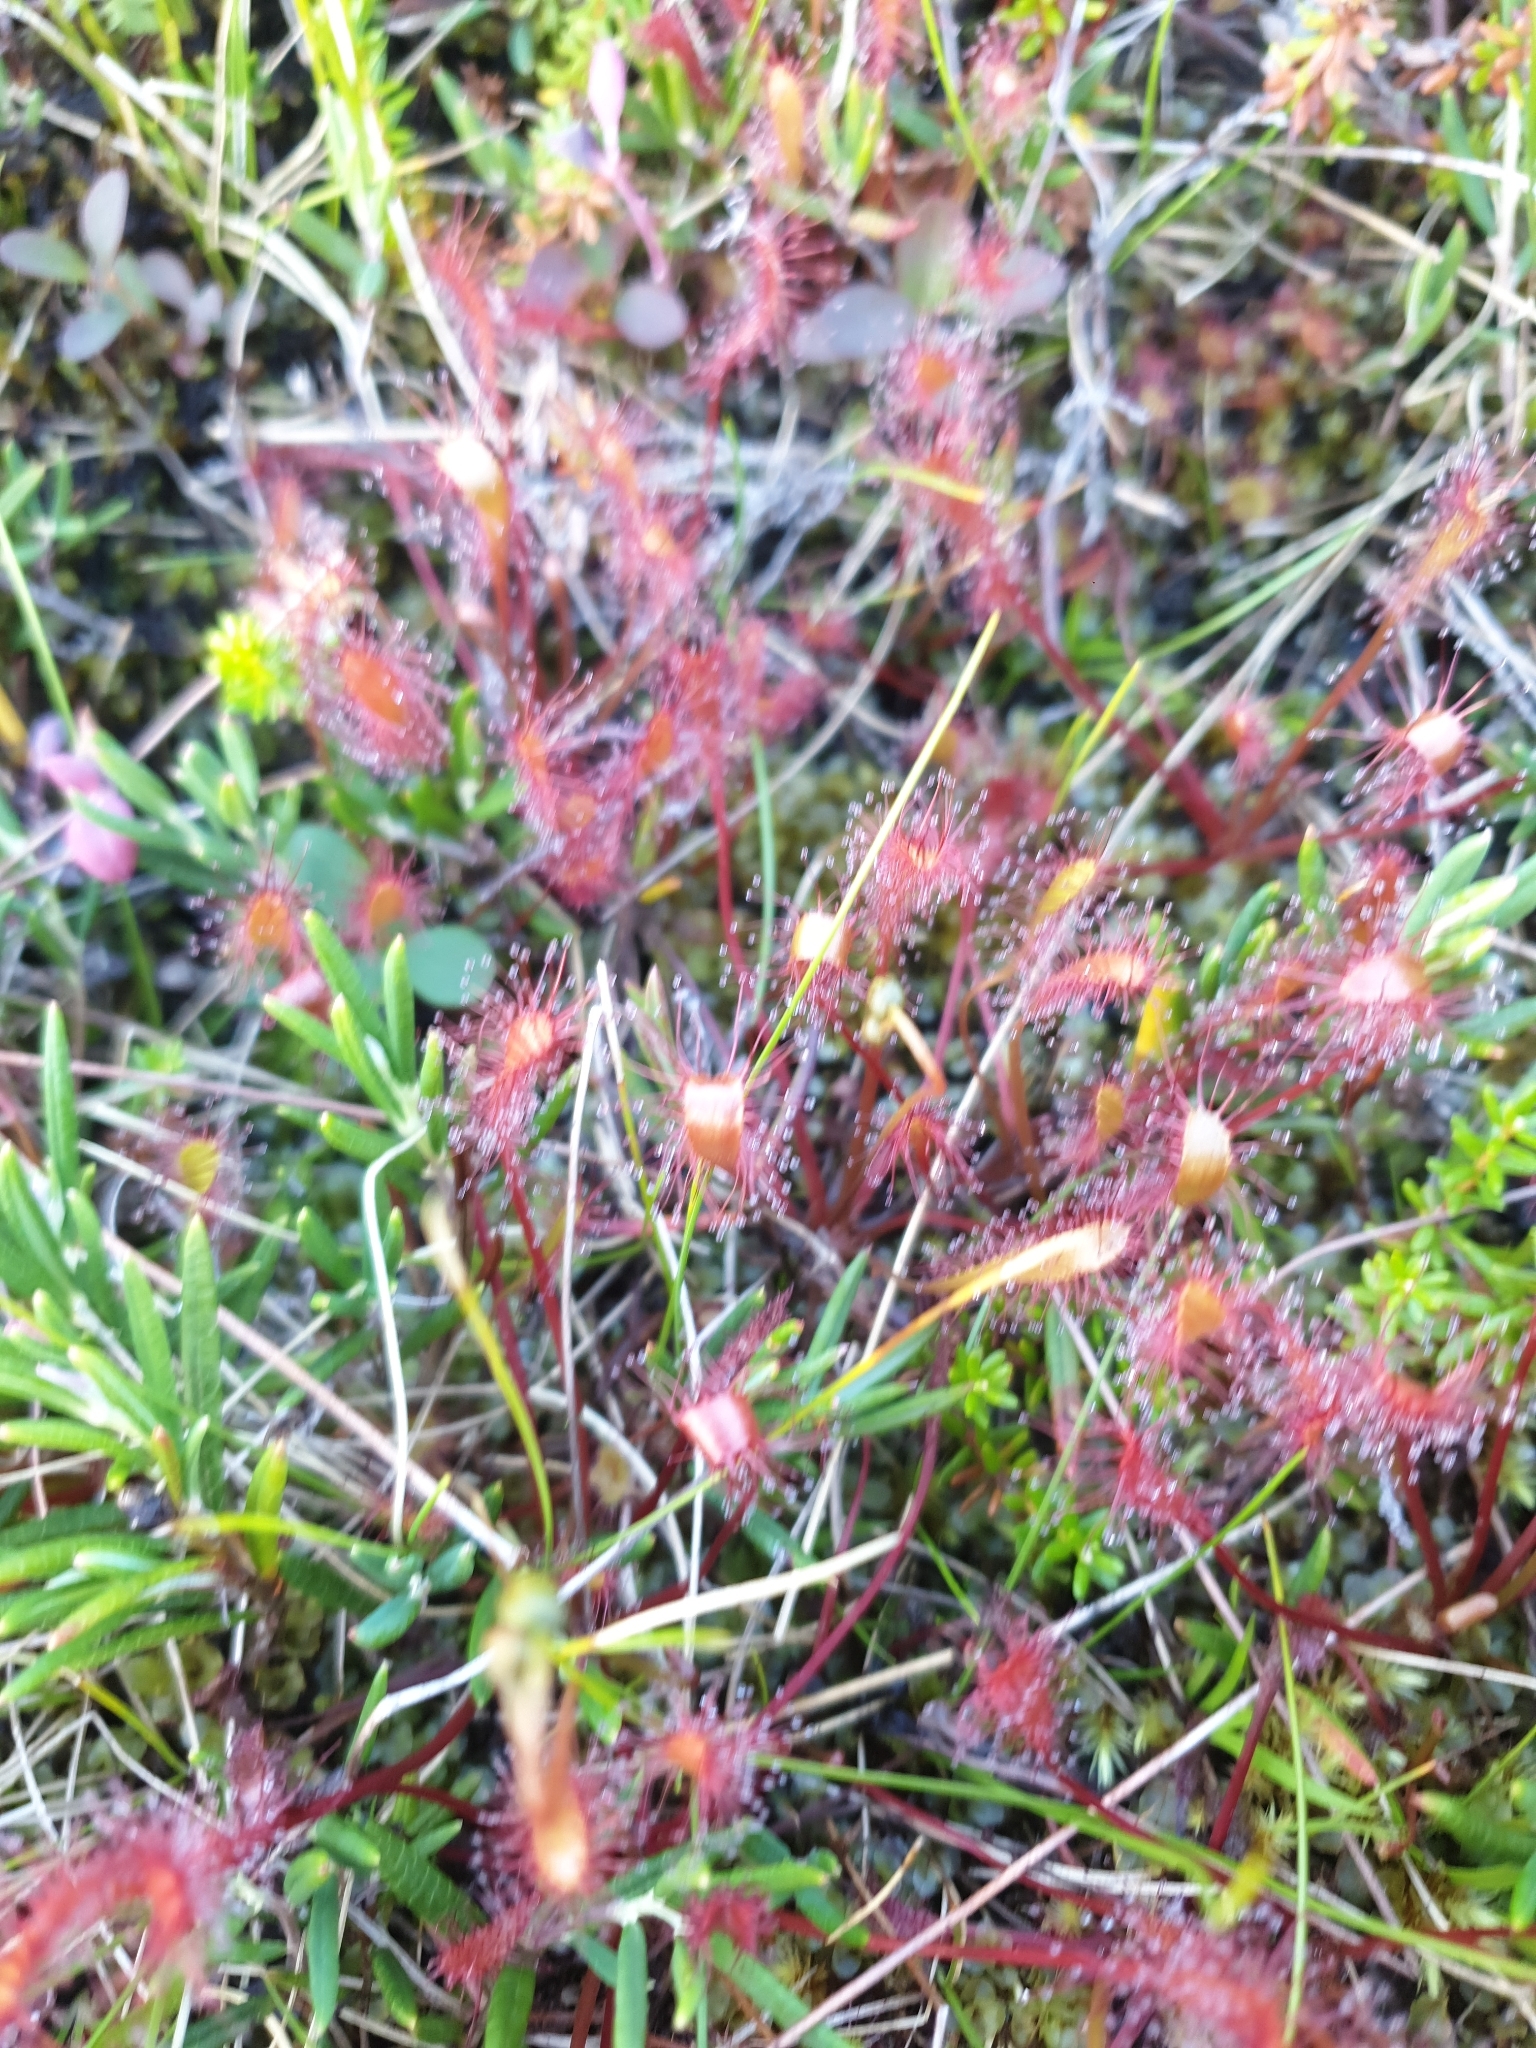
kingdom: Plantae
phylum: Tracheophyta
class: Magnoliopsida
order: Caryophyllales
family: Droseraceae
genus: Drosera
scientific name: Drosera anglica
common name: Great sundew
